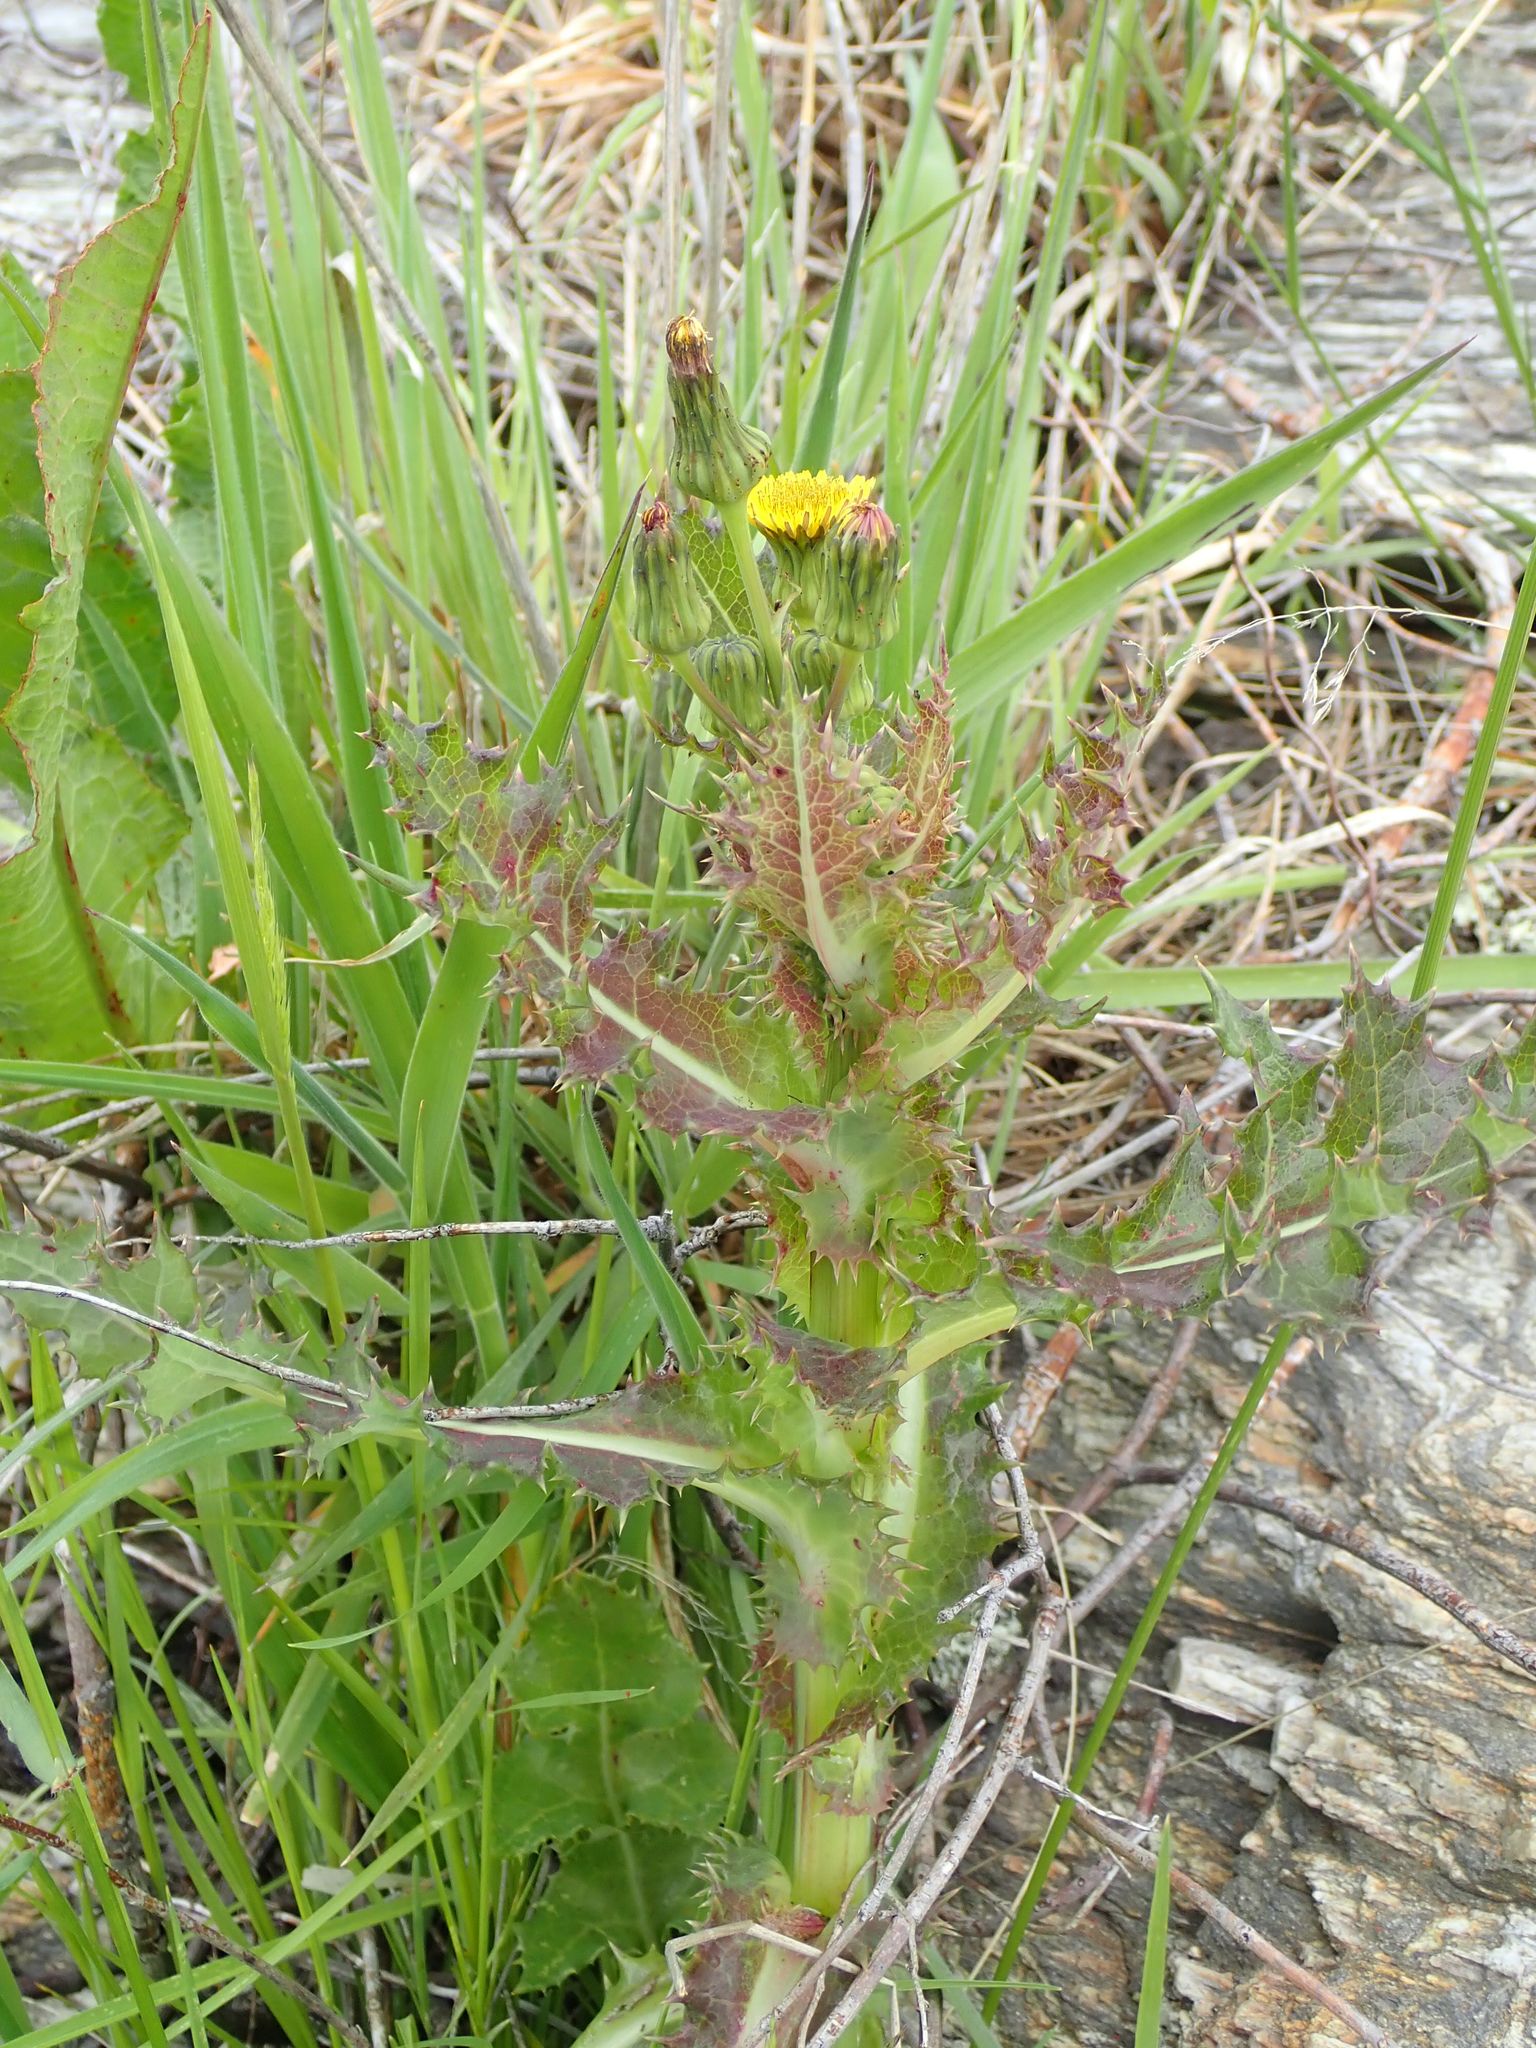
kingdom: Plantae
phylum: Tracheophyta
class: Magnoliopsida
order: Asterales
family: Asteraceae
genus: Sonchus
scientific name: Sonchus asper
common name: Prickly sow-thistle
